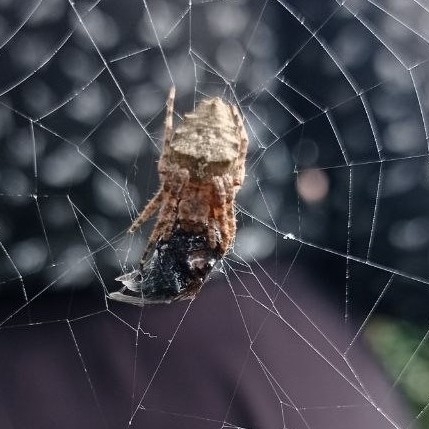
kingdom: Animalia
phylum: Arthropoda
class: Arachnida
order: Araneae
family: Araneidae
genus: Parawixia
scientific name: Parawixia audax
